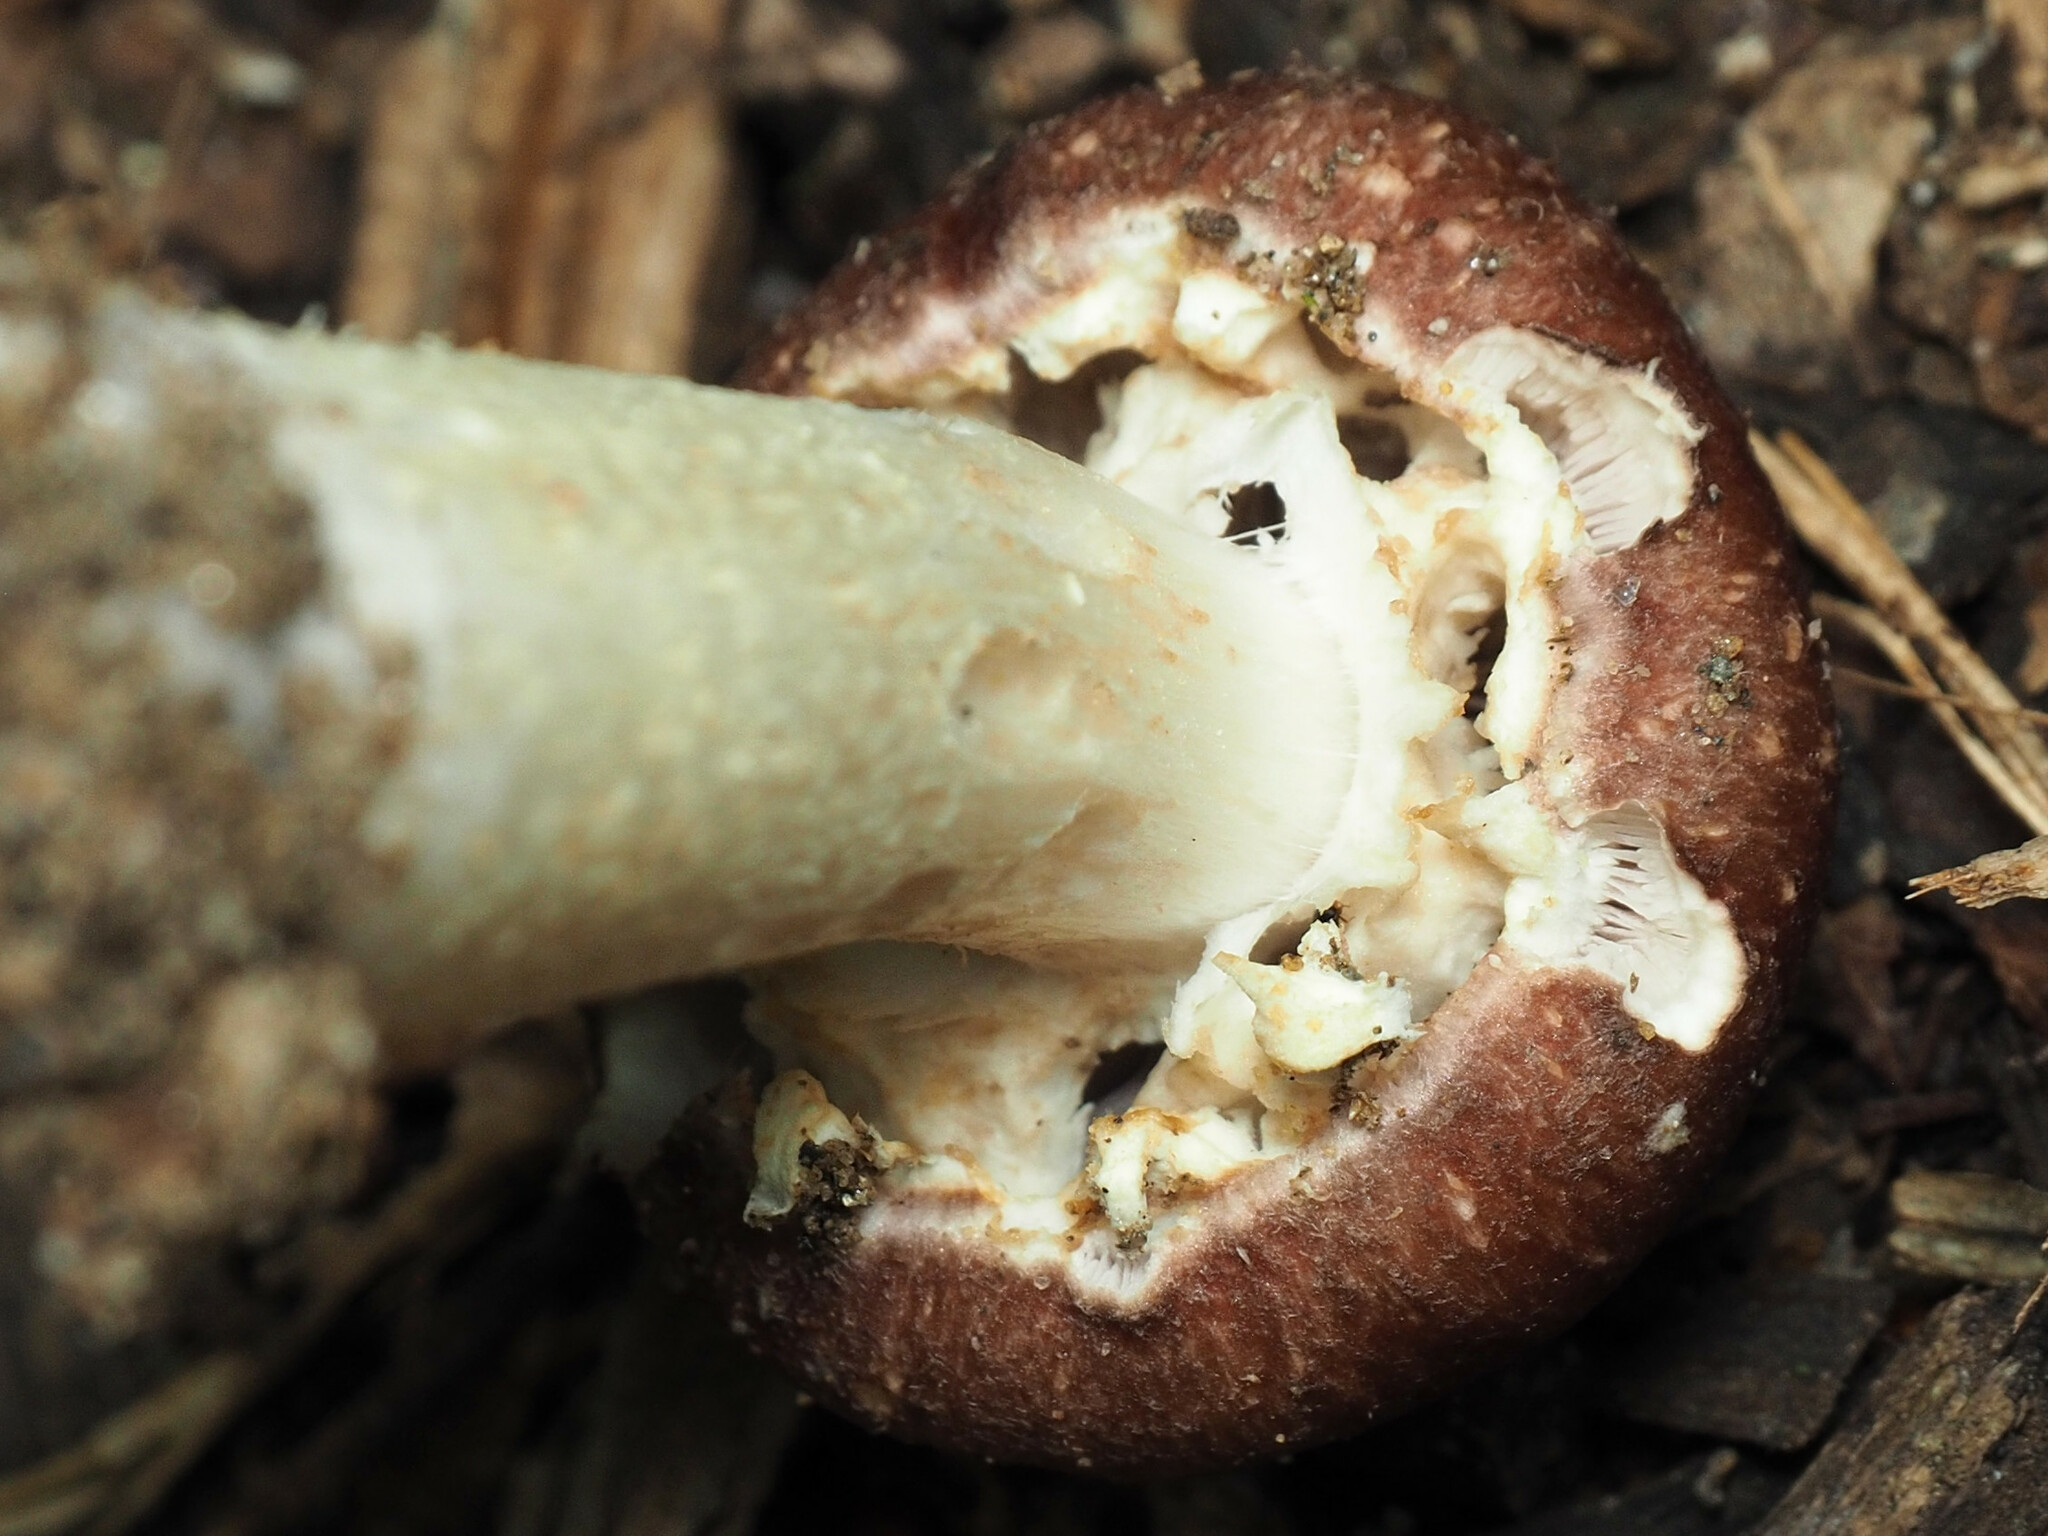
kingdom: Fungi
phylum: Basidiomycota
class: Agaricomycetes
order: Agaricales
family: Strophariaceae
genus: Stropharia
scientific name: Stropharia rugosoannulata
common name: Wine roundhead
